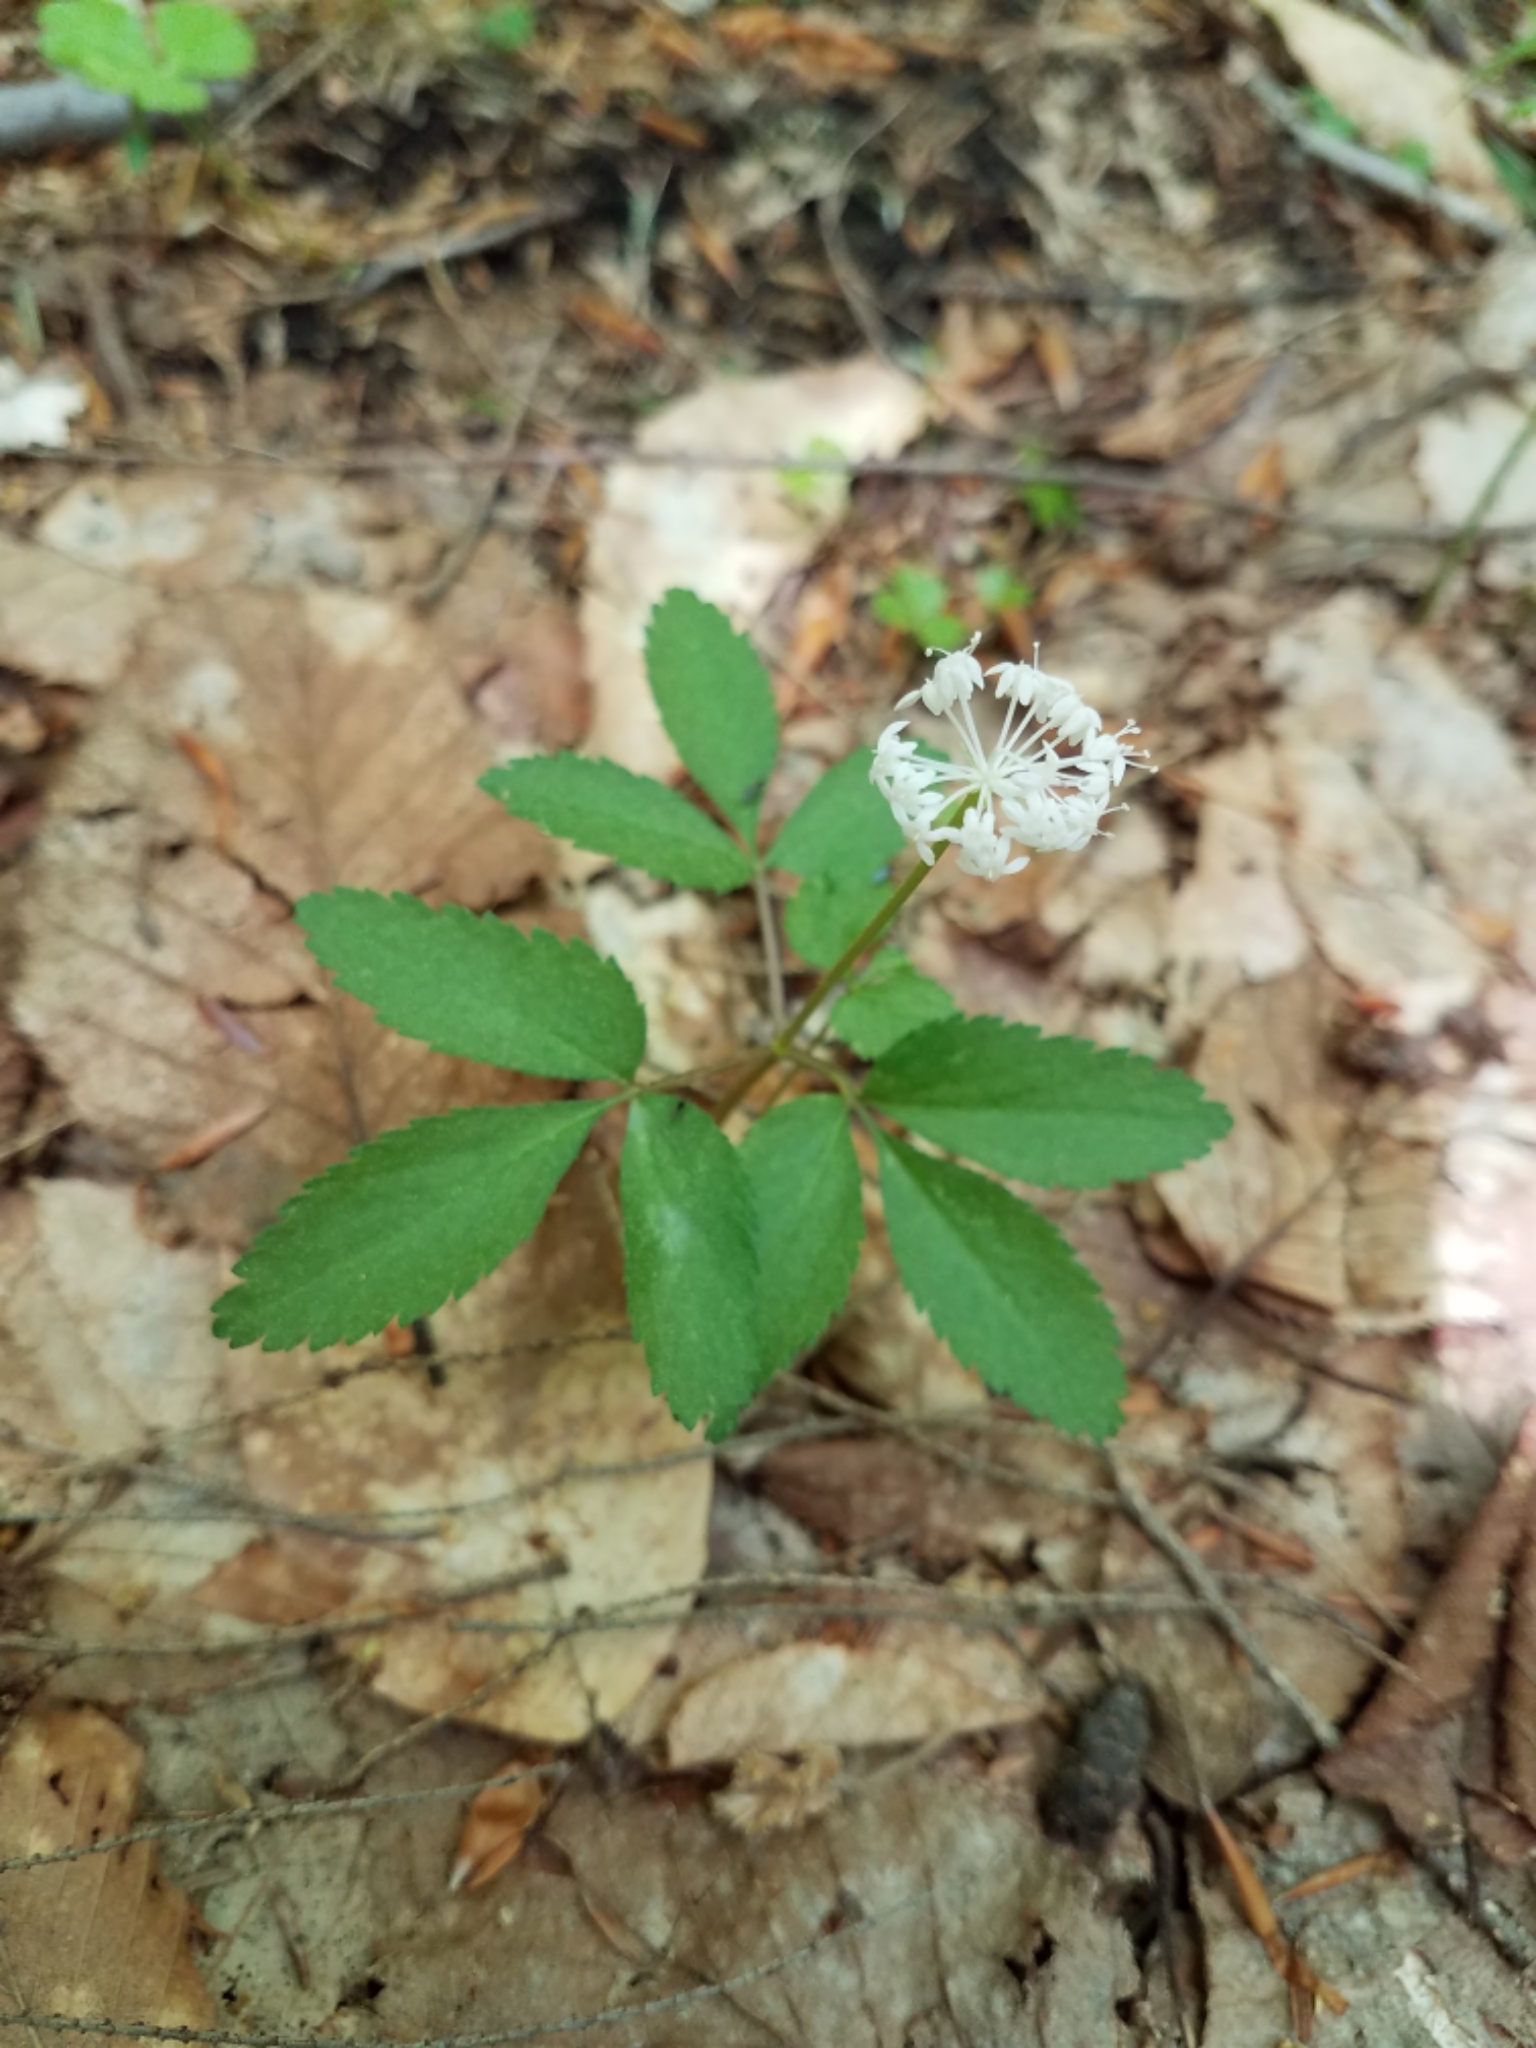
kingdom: Plantae
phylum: Tracheophyta
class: Magnoliopsida
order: Apiales
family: Araliaceae
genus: Panax
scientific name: Panax trifolius
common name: Dwarf ginseng
